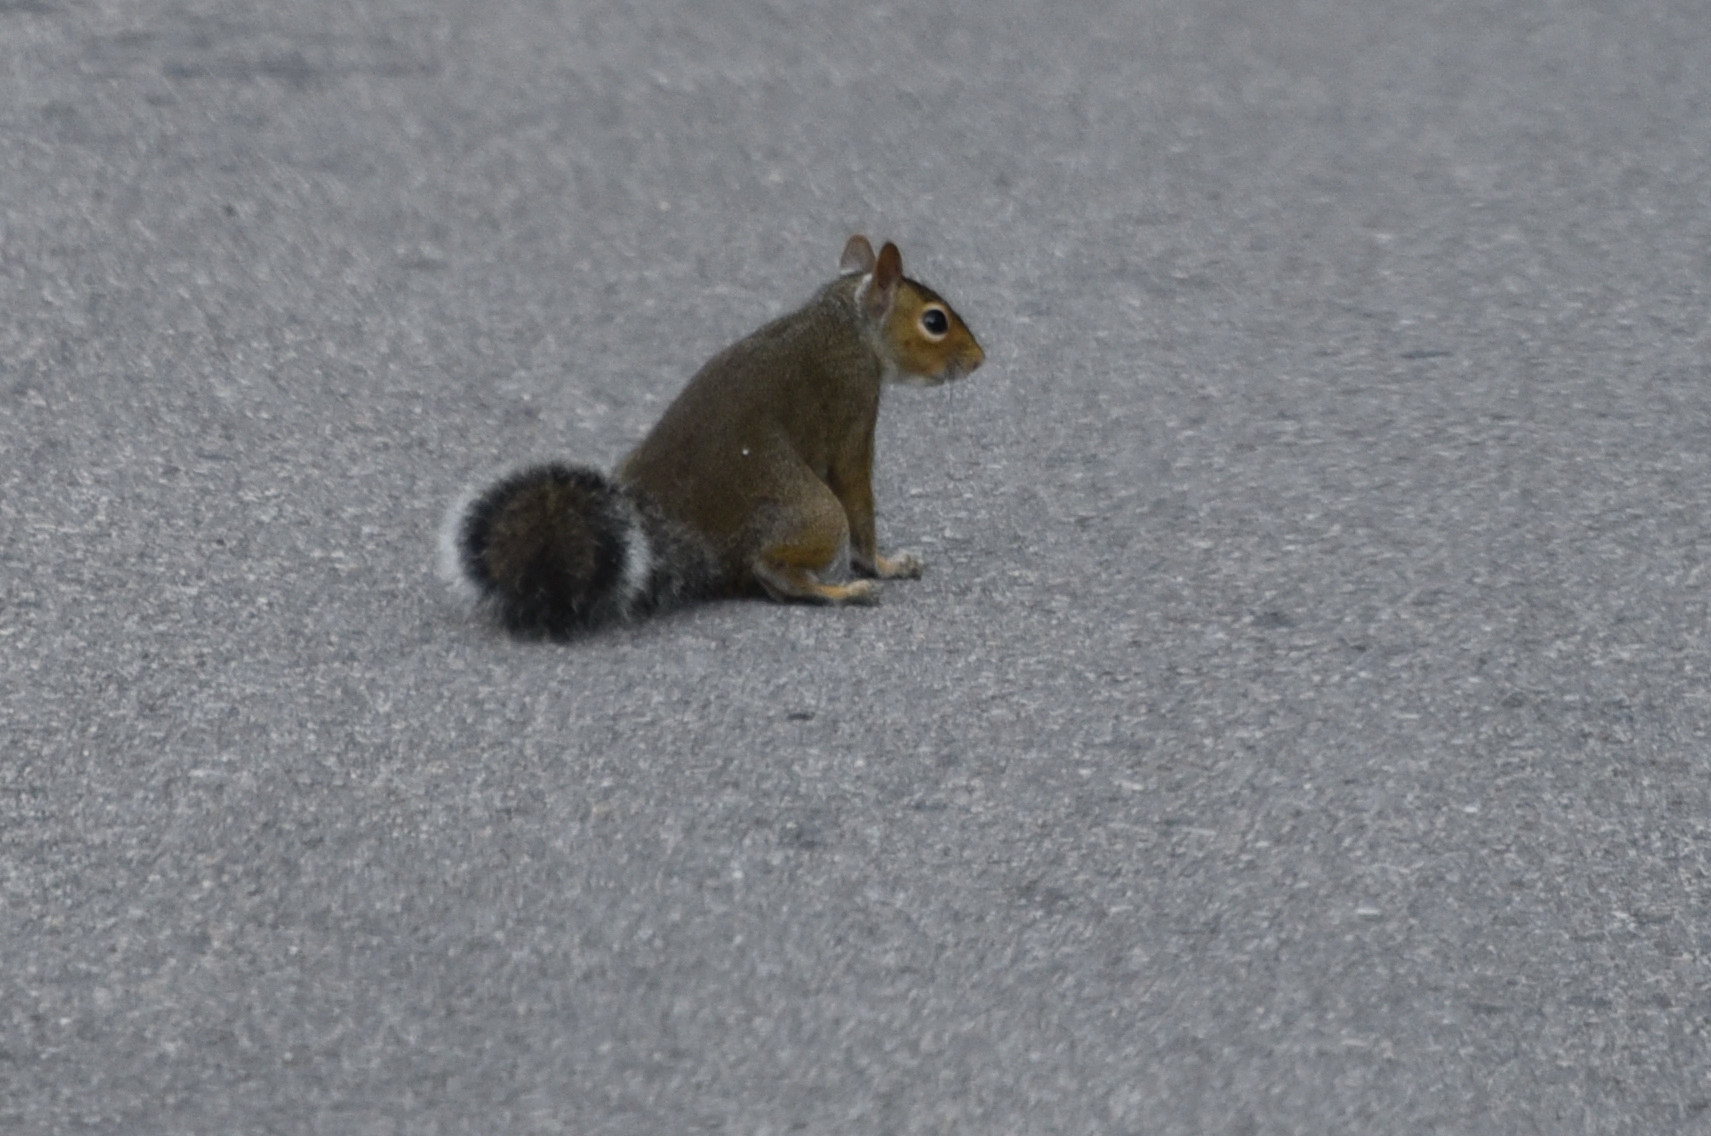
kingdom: Animalia
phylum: Chordata
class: Mammalia
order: Rodentia
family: Sciuridae
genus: Sciurus
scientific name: Sciurus carolinensis
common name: Eastern gray squirrel
